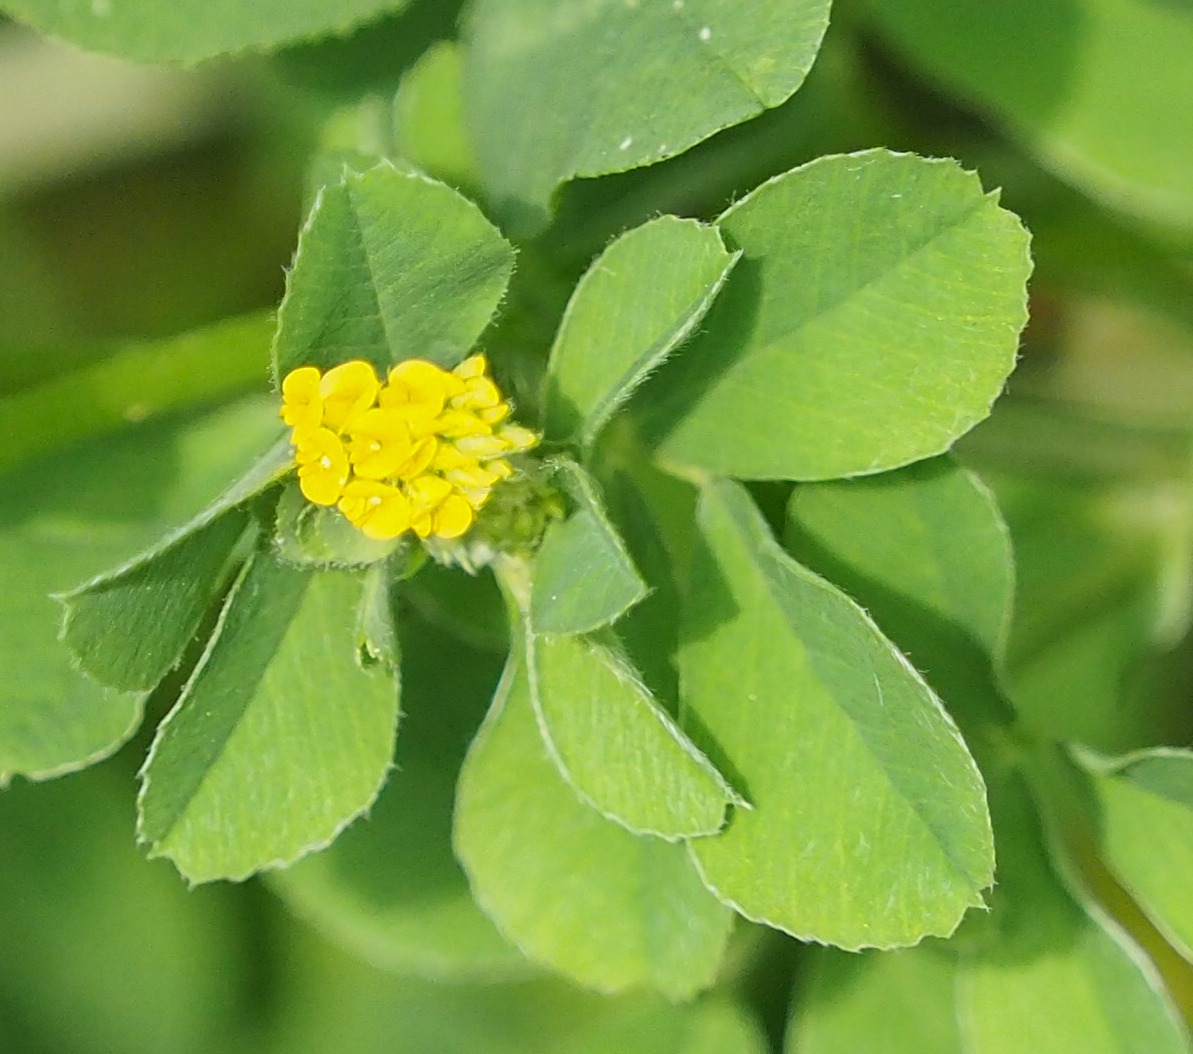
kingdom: Plantae
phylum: Tracheophyta
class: Magnoliopsida
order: Fabales
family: Fabaceae
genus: Medicago
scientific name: Medicago lupulina
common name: Black medick
